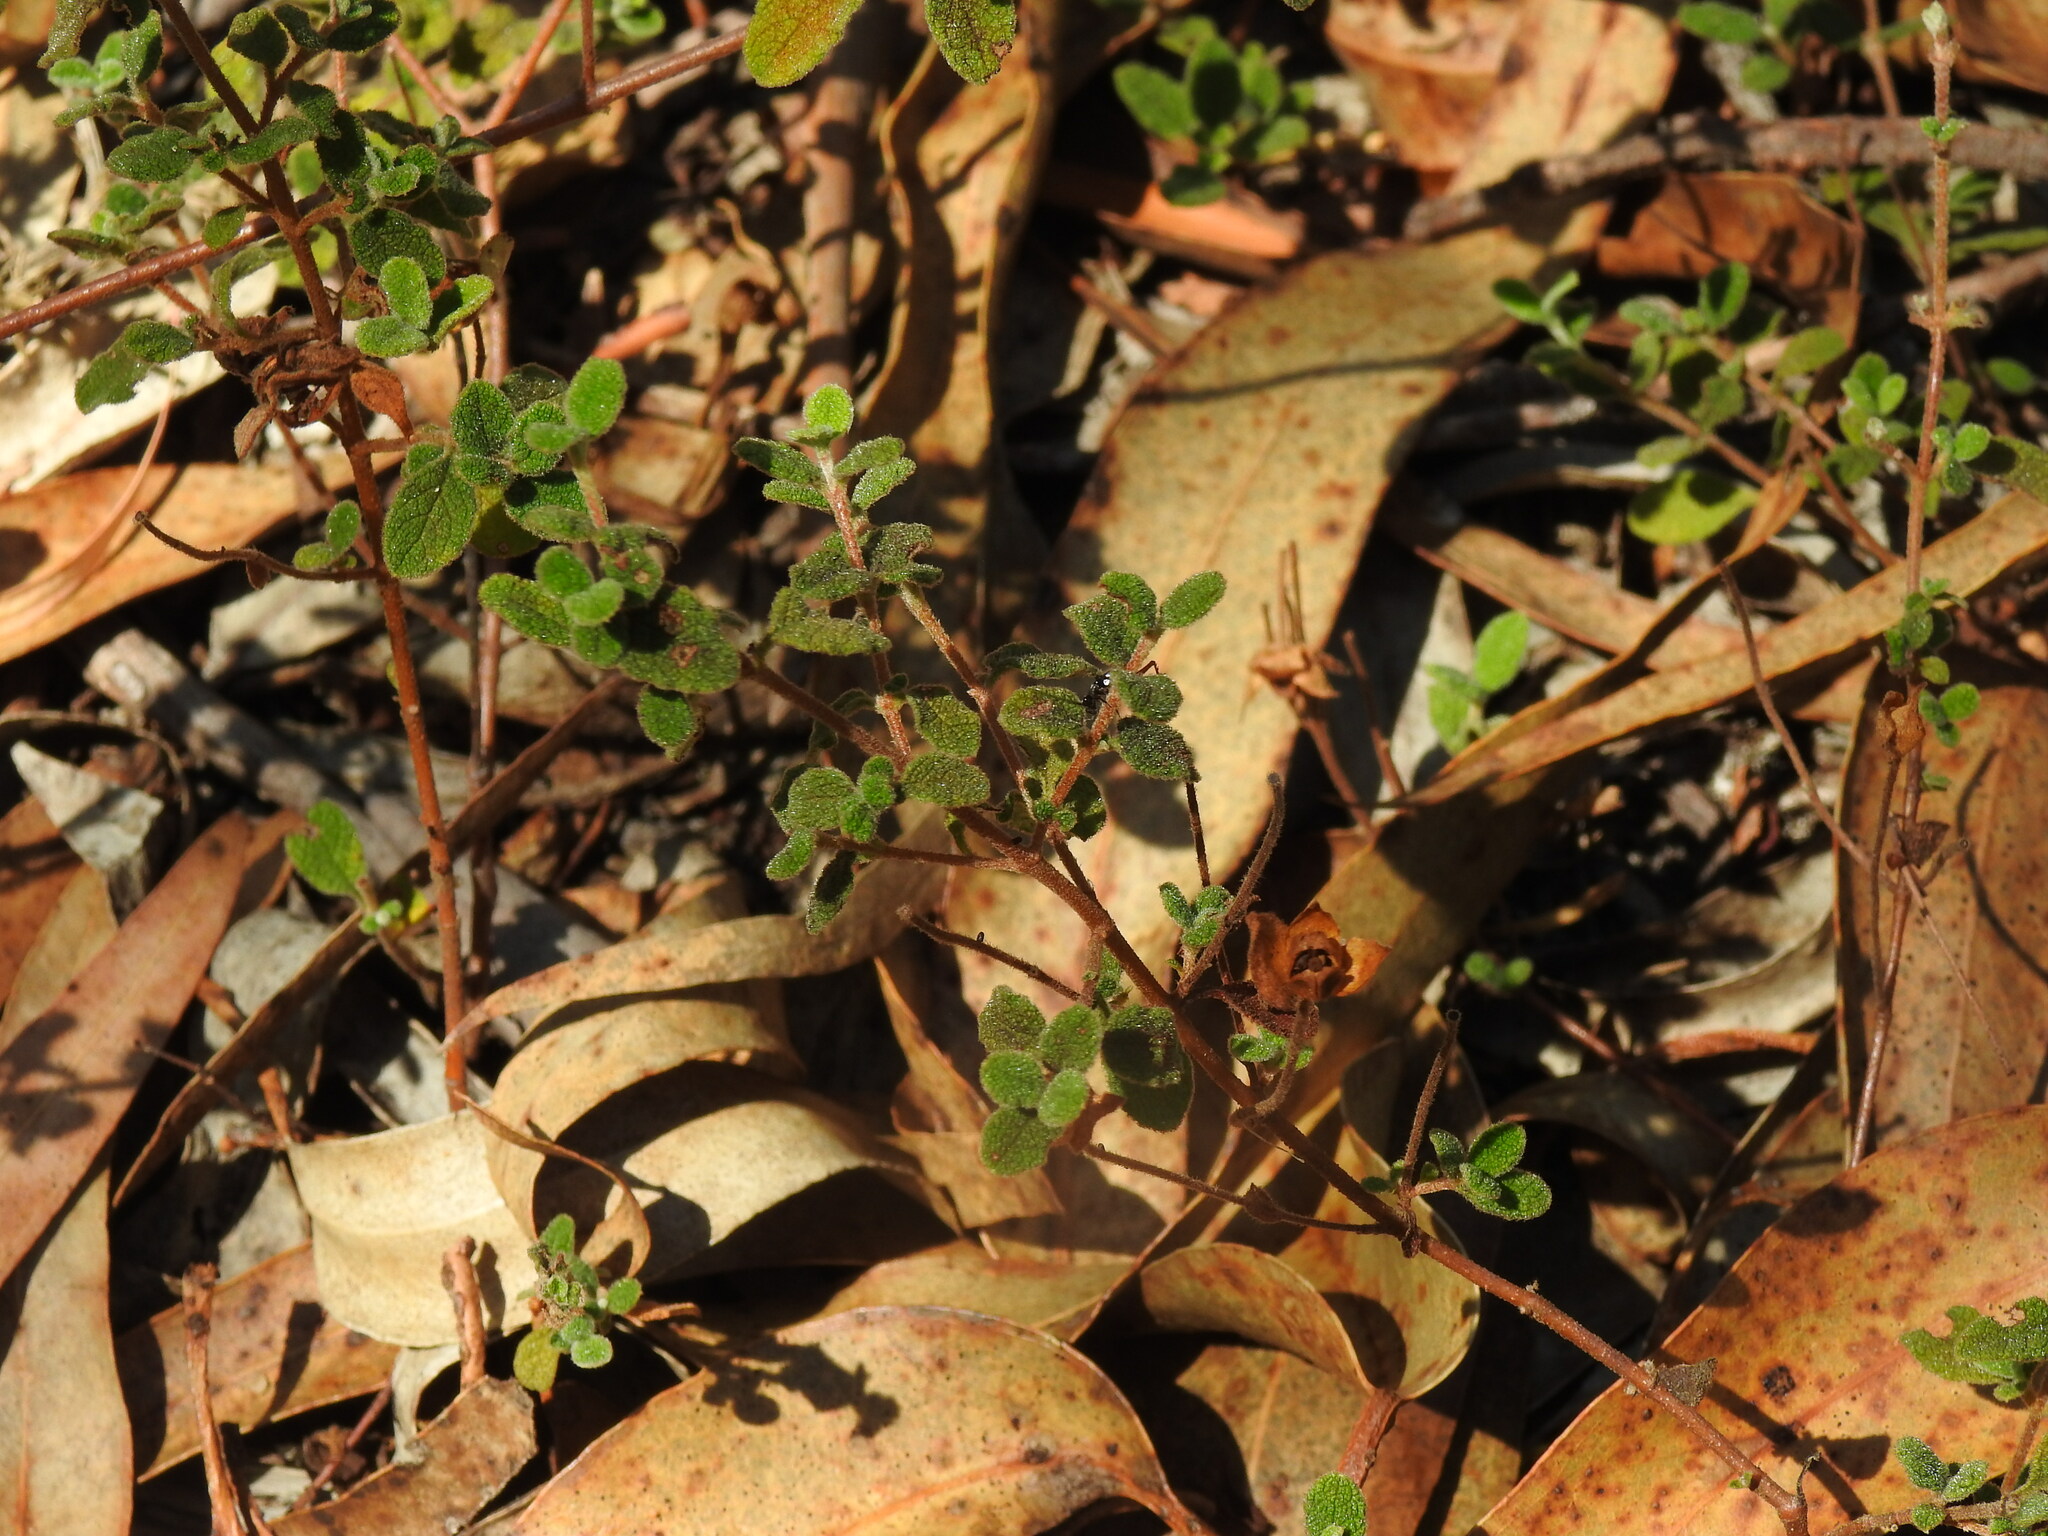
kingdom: Plantae
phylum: Tracheophyta
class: Magnoliopsida
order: Malvales
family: Cistaceae
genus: Cistus
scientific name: Cistus salviifolius
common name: Salvia cistus
